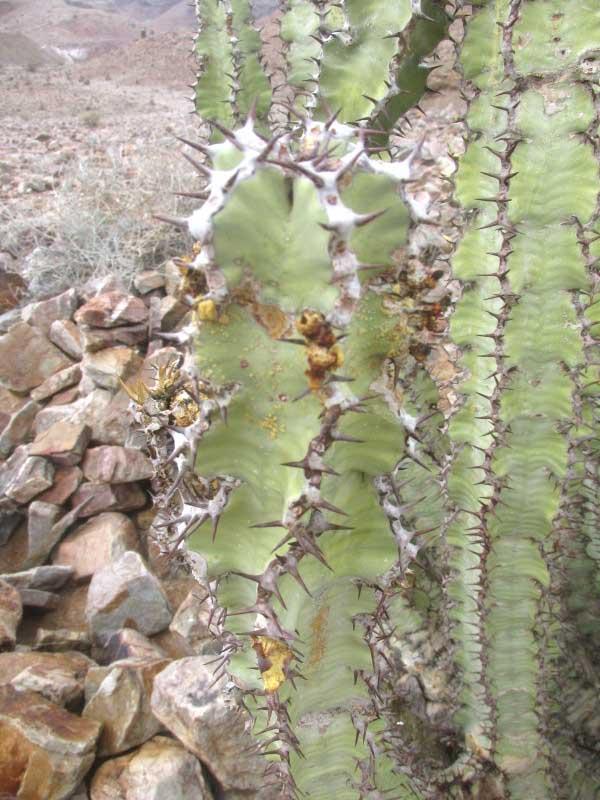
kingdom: Plantae
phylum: Tracheophyta
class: Magnoliopsida
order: Malpighiales
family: Euphorbiaceae
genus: Euphorbia
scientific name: Euphorbia virosa
